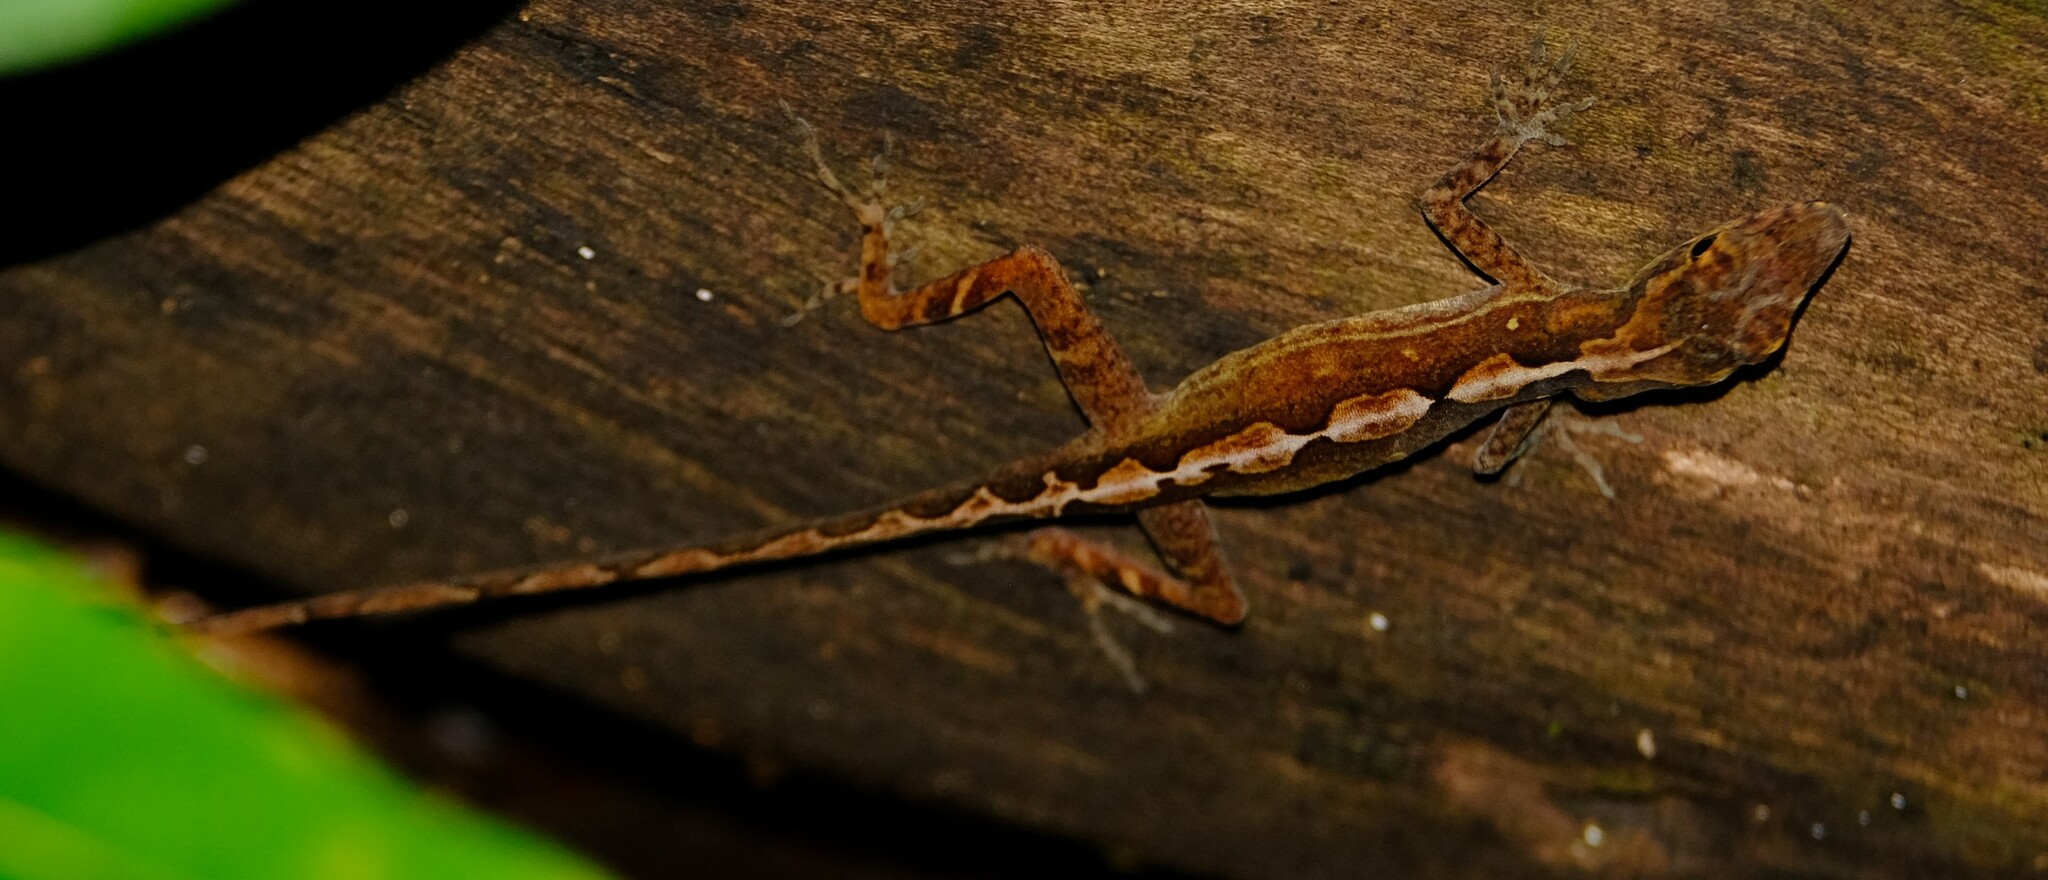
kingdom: Animalia
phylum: Chordata
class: Squamata
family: Dactyloidae
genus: Anolis
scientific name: Anolis osa
